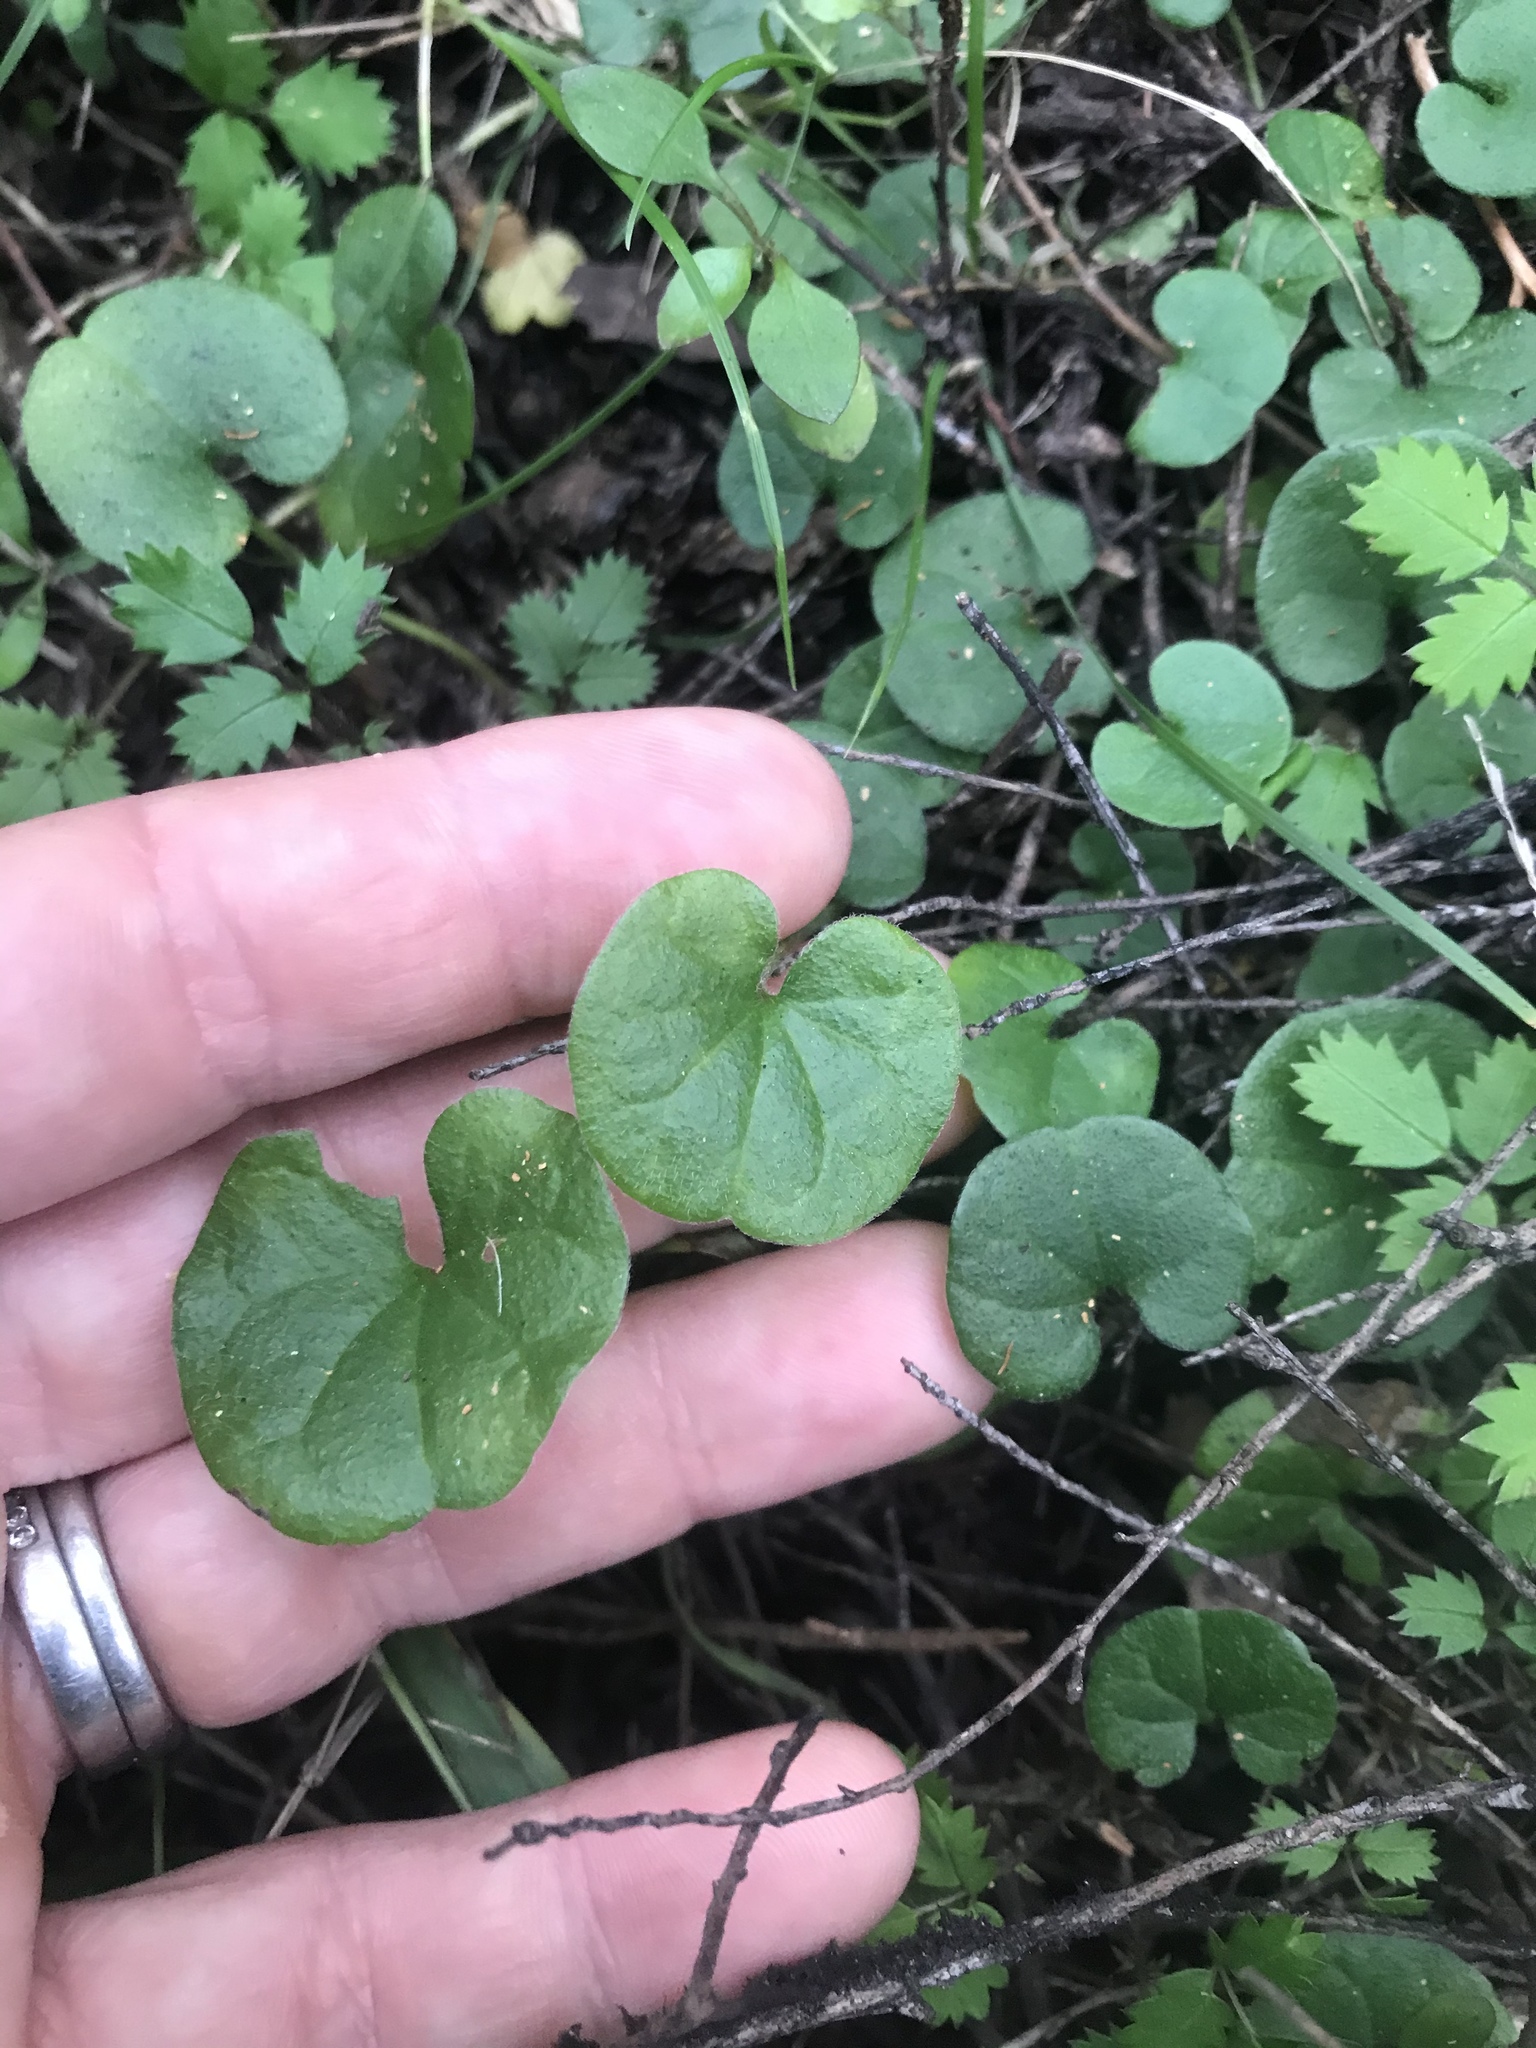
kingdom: Plantae
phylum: Tracheophyta
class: Magnoliopsida
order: Solanales
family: Convolvulaceae
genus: Dichondra
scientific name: Dichondra repens
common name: Kidneyweed
